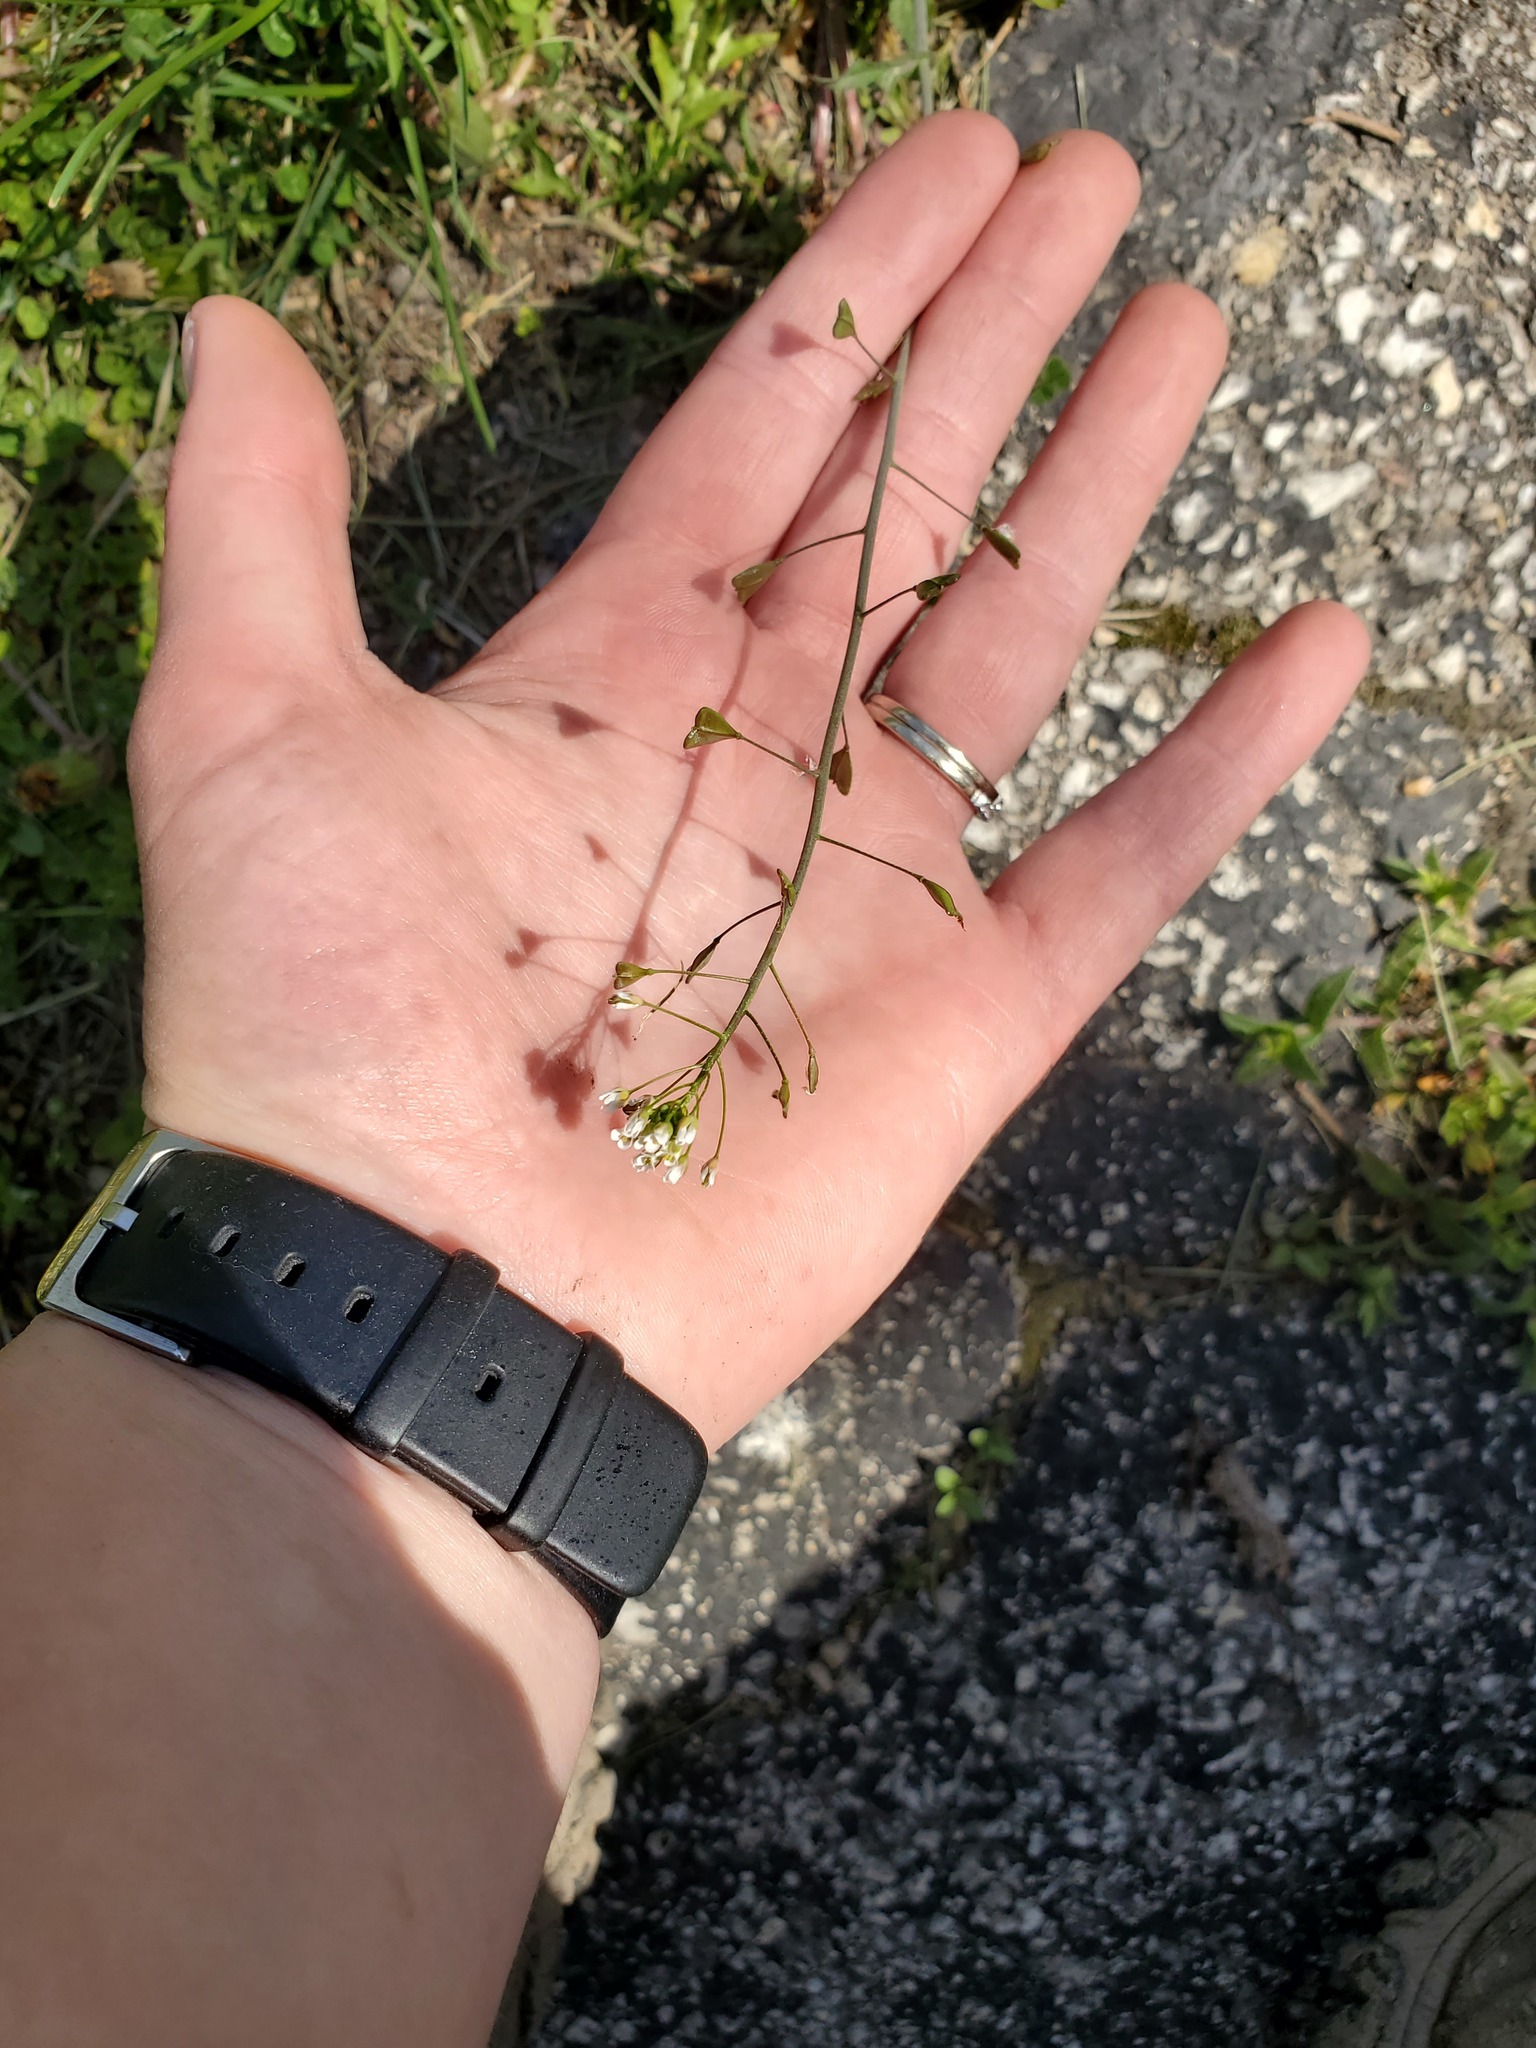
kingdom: Plantae
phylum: Tracheophyta
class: Magnoliopsida
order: Brassicales
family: Brassicaceae
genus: Capsella
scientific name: Capsella bursa-pastoris
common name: Shepherd's purse
